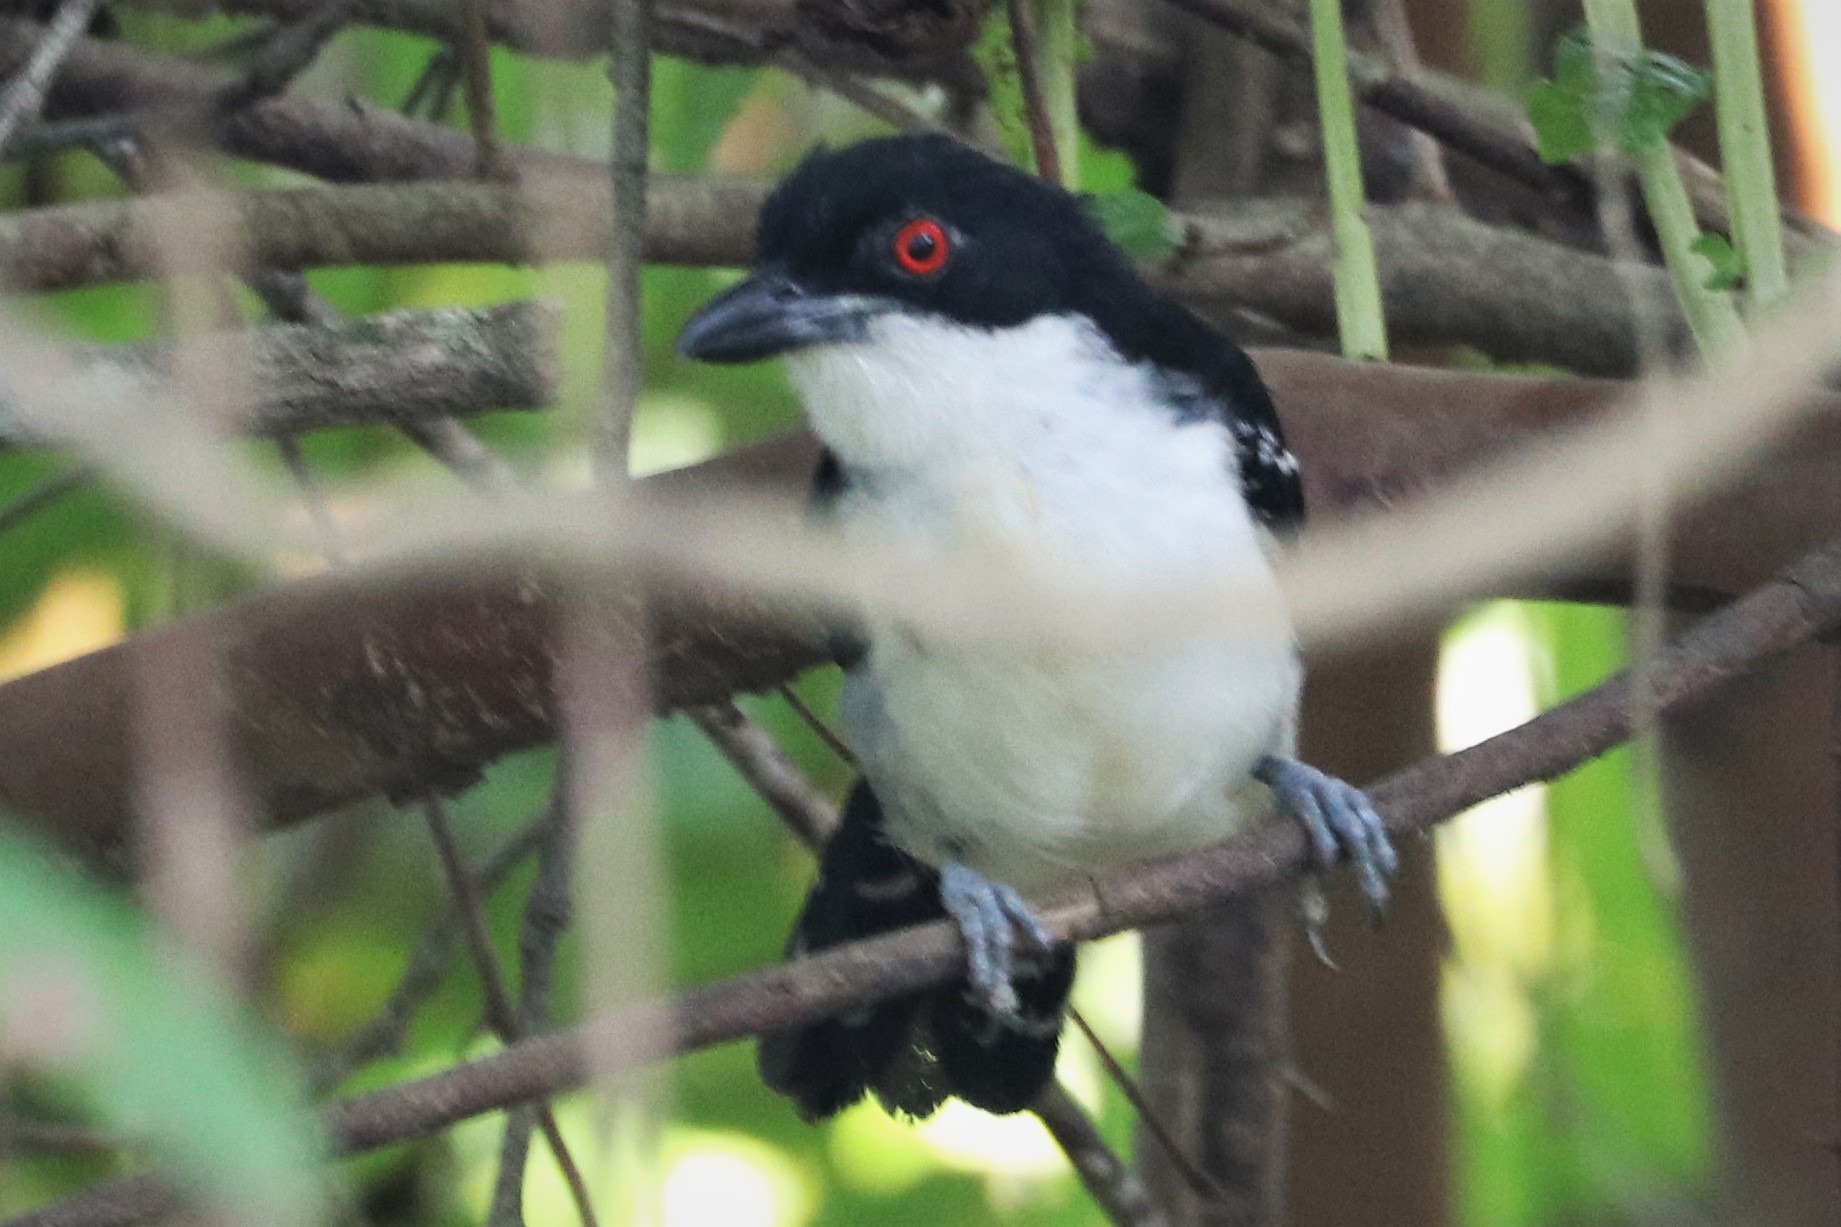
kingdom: Animalia
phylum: Chordata
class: Aves
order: Passeriformes
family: Thamnophilidae
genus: Taraba
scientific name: Taraba major
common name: Great antshrike
